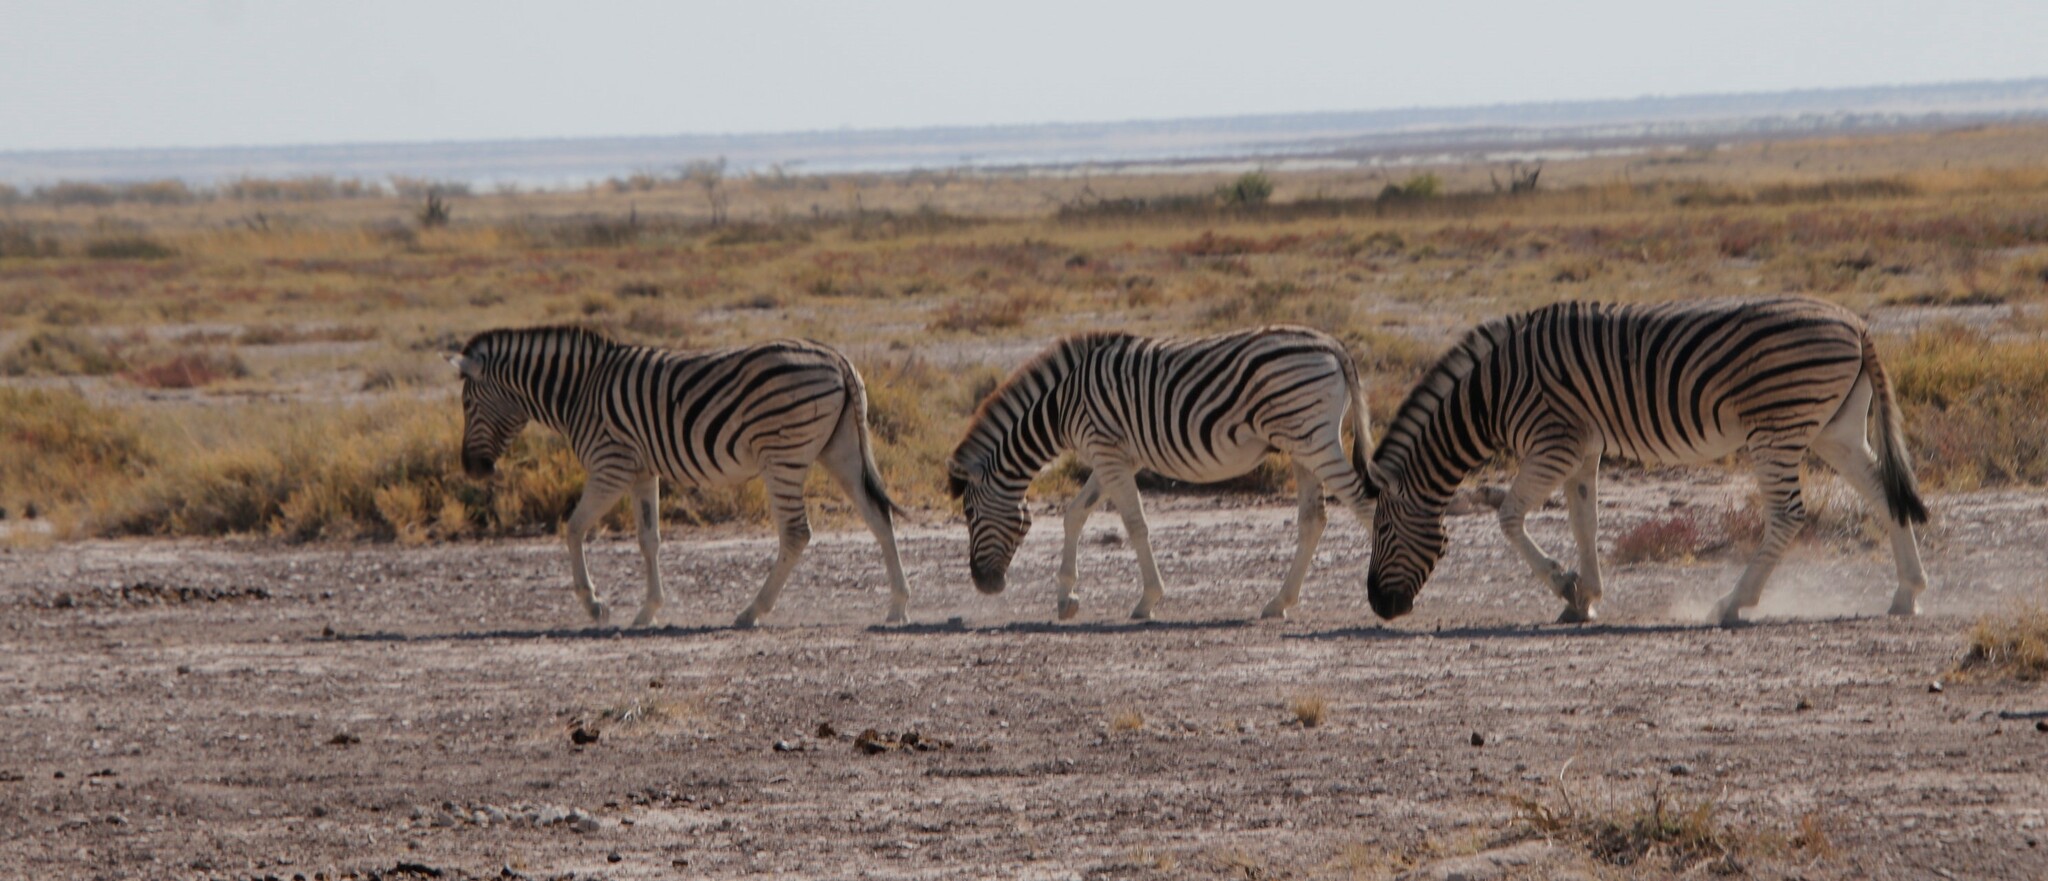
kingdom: Animalia
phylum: Chordata
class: Mammalia
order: Perissodactyla
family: Equidae
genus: Equus
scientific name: Equus quagga
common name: Plains zebra
